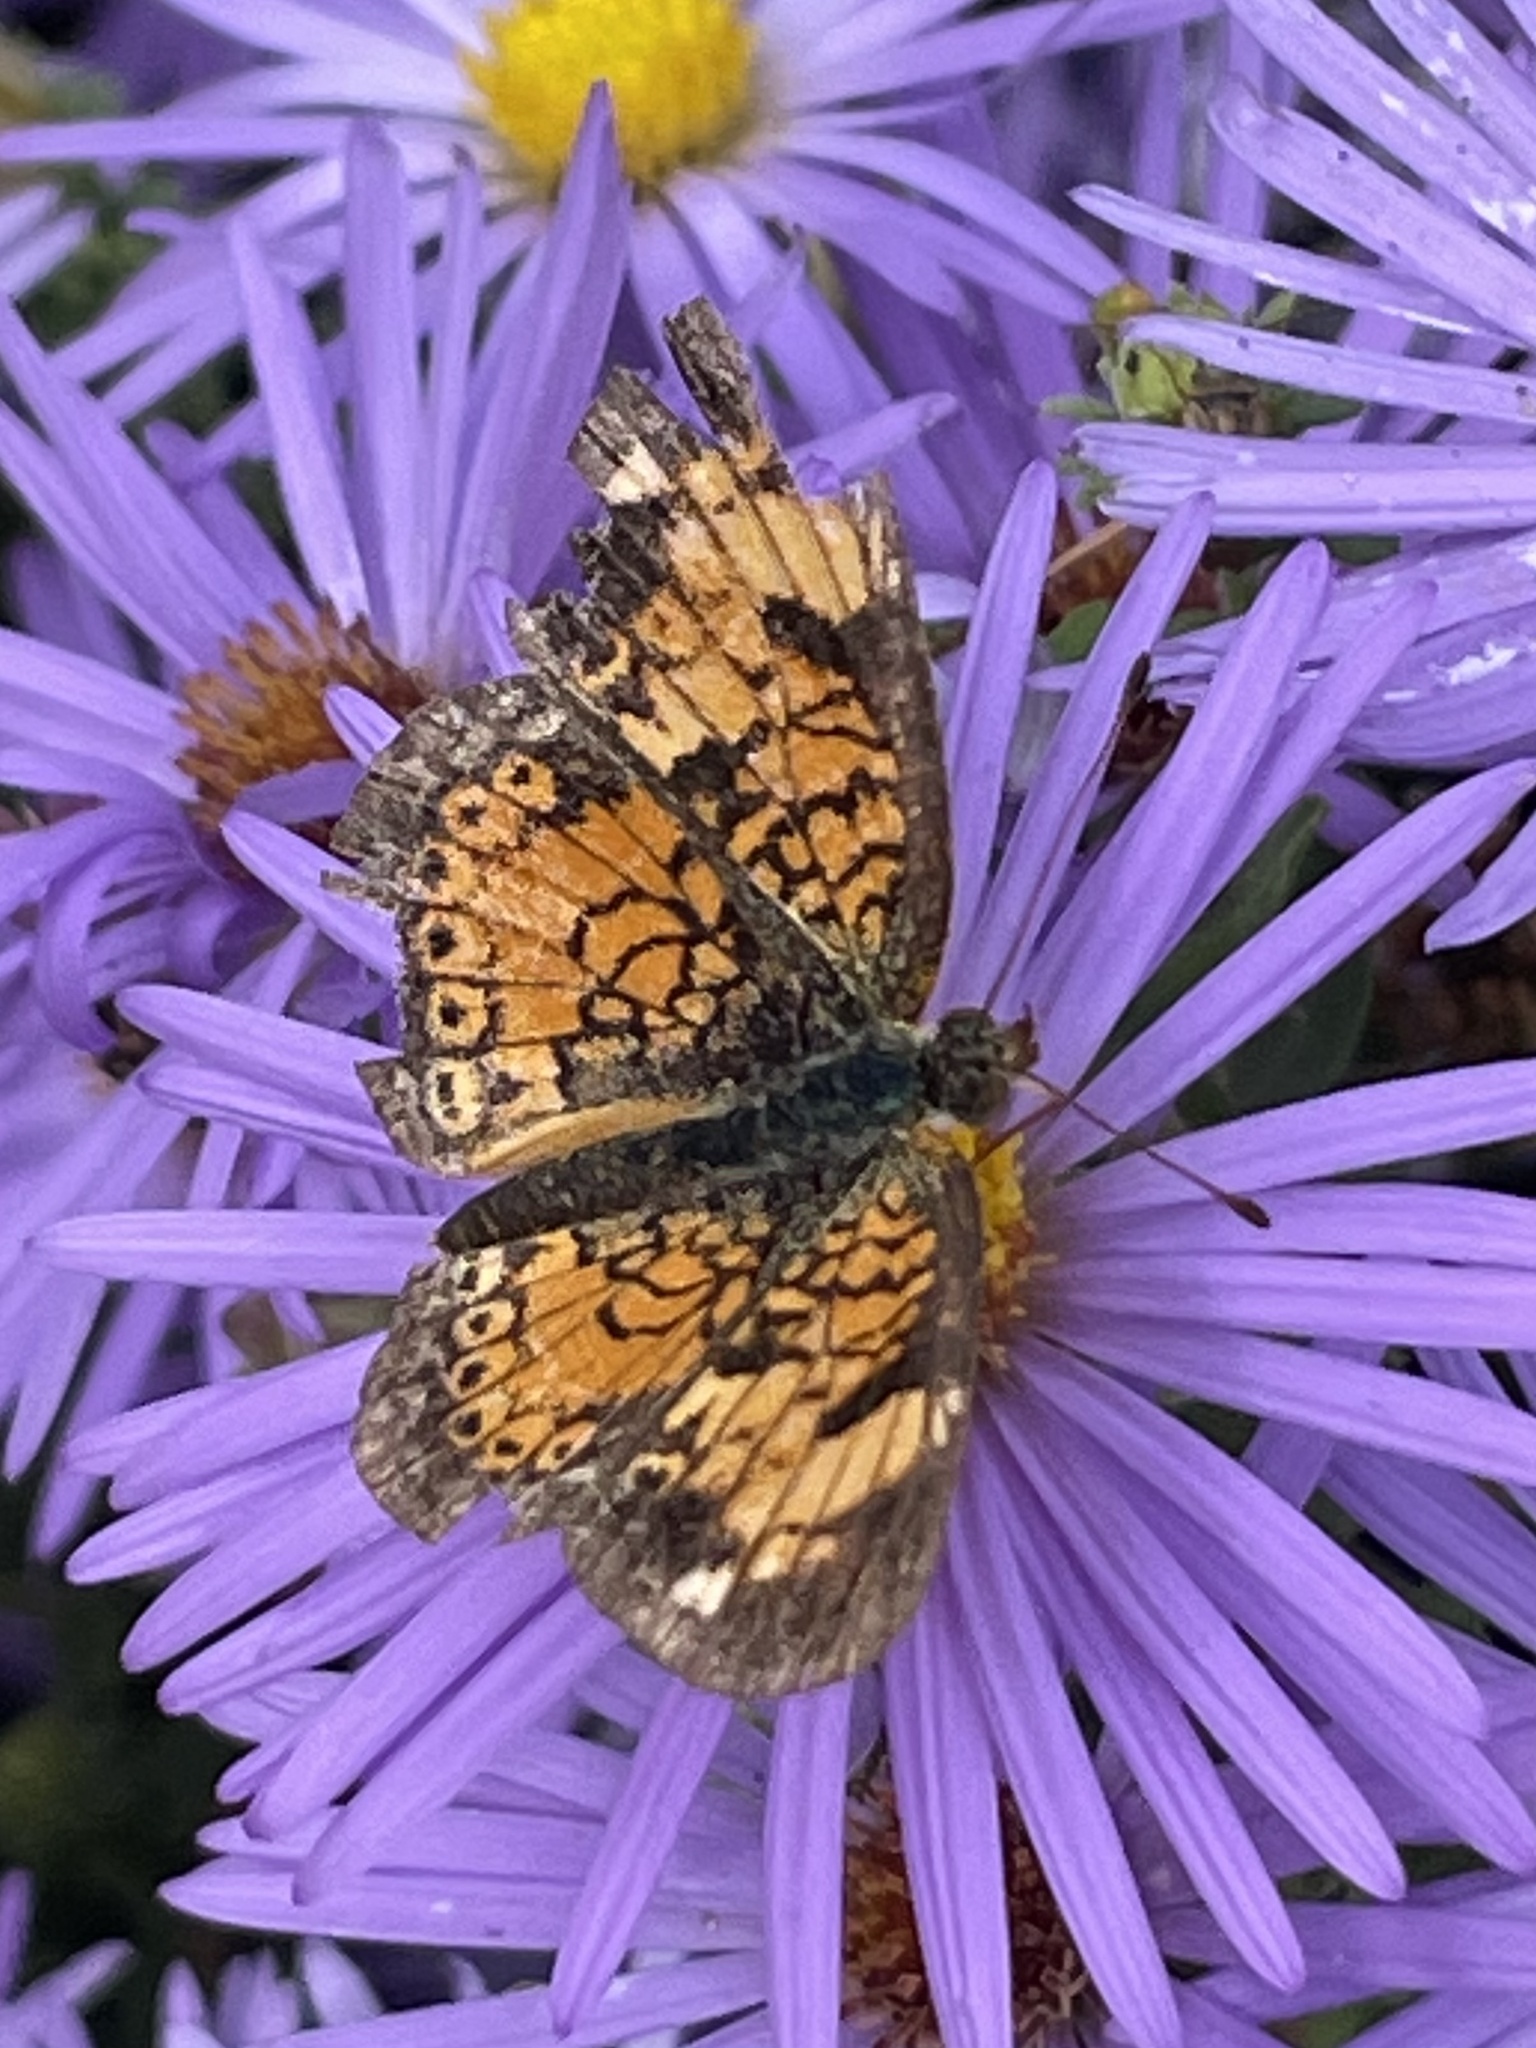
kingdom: Animalia
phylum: Arthropoda
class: Insecta
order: Lepidoptera
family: Nymphalidae
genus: Phyciodes
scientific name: Phyciodes tharos
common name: Pearl crescent
